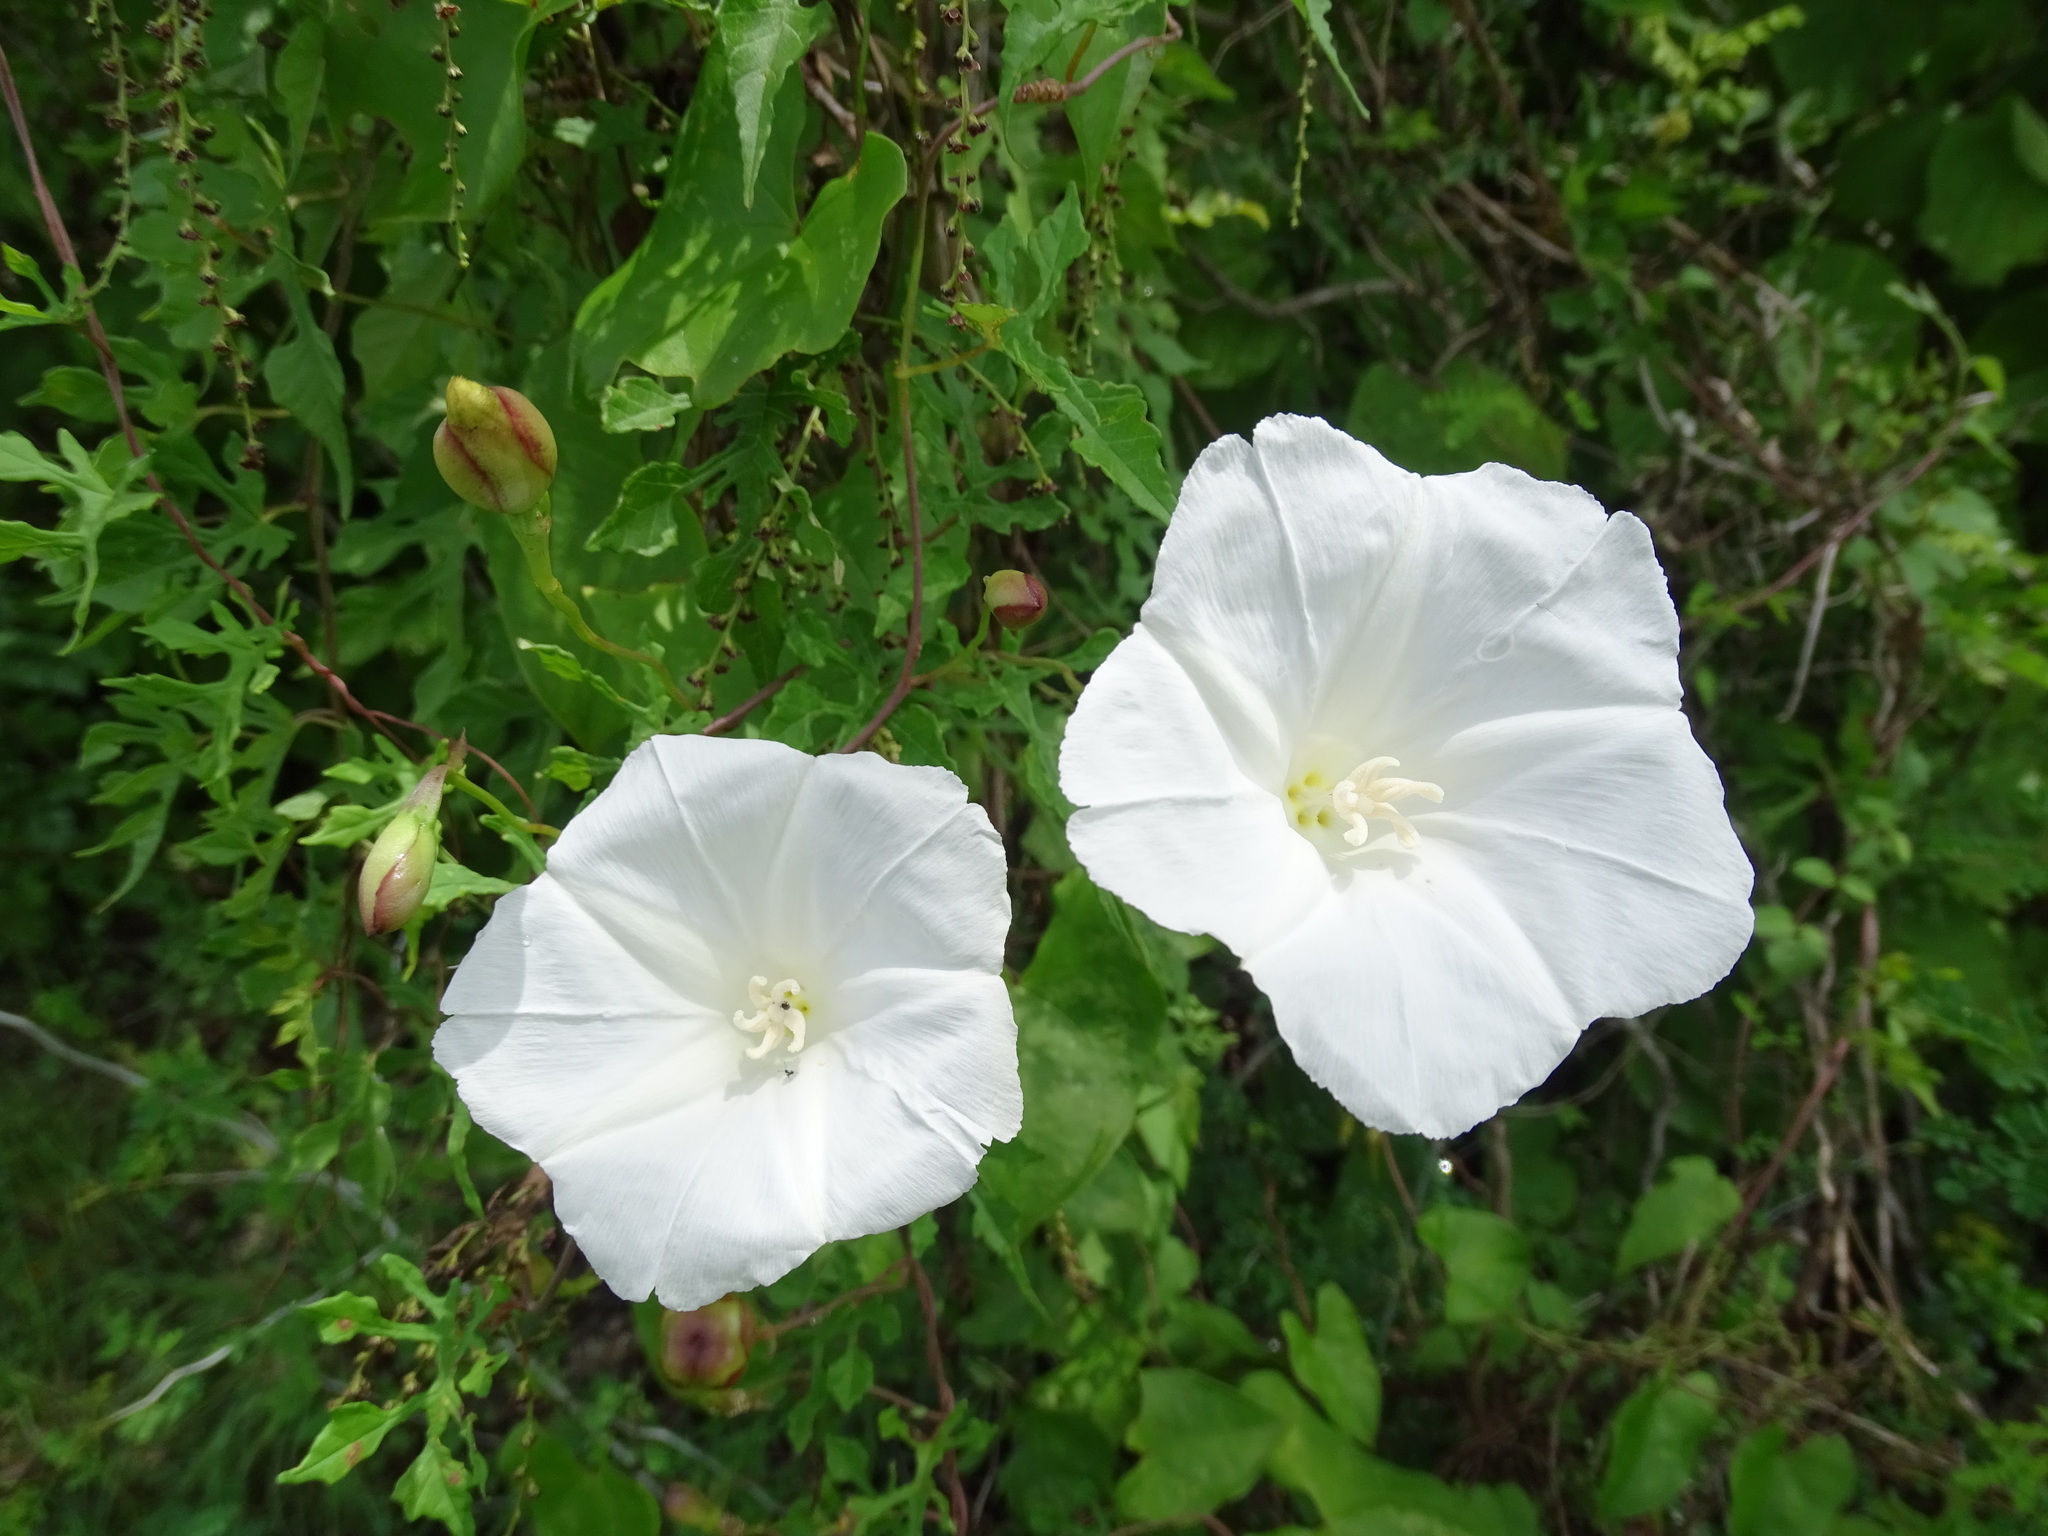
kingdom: Plantae
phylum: Tracheophyta
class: Magnoliopsida
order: Solanales
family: Convolvulaceae
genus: Operculina
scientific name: Operculina pinnatifida
